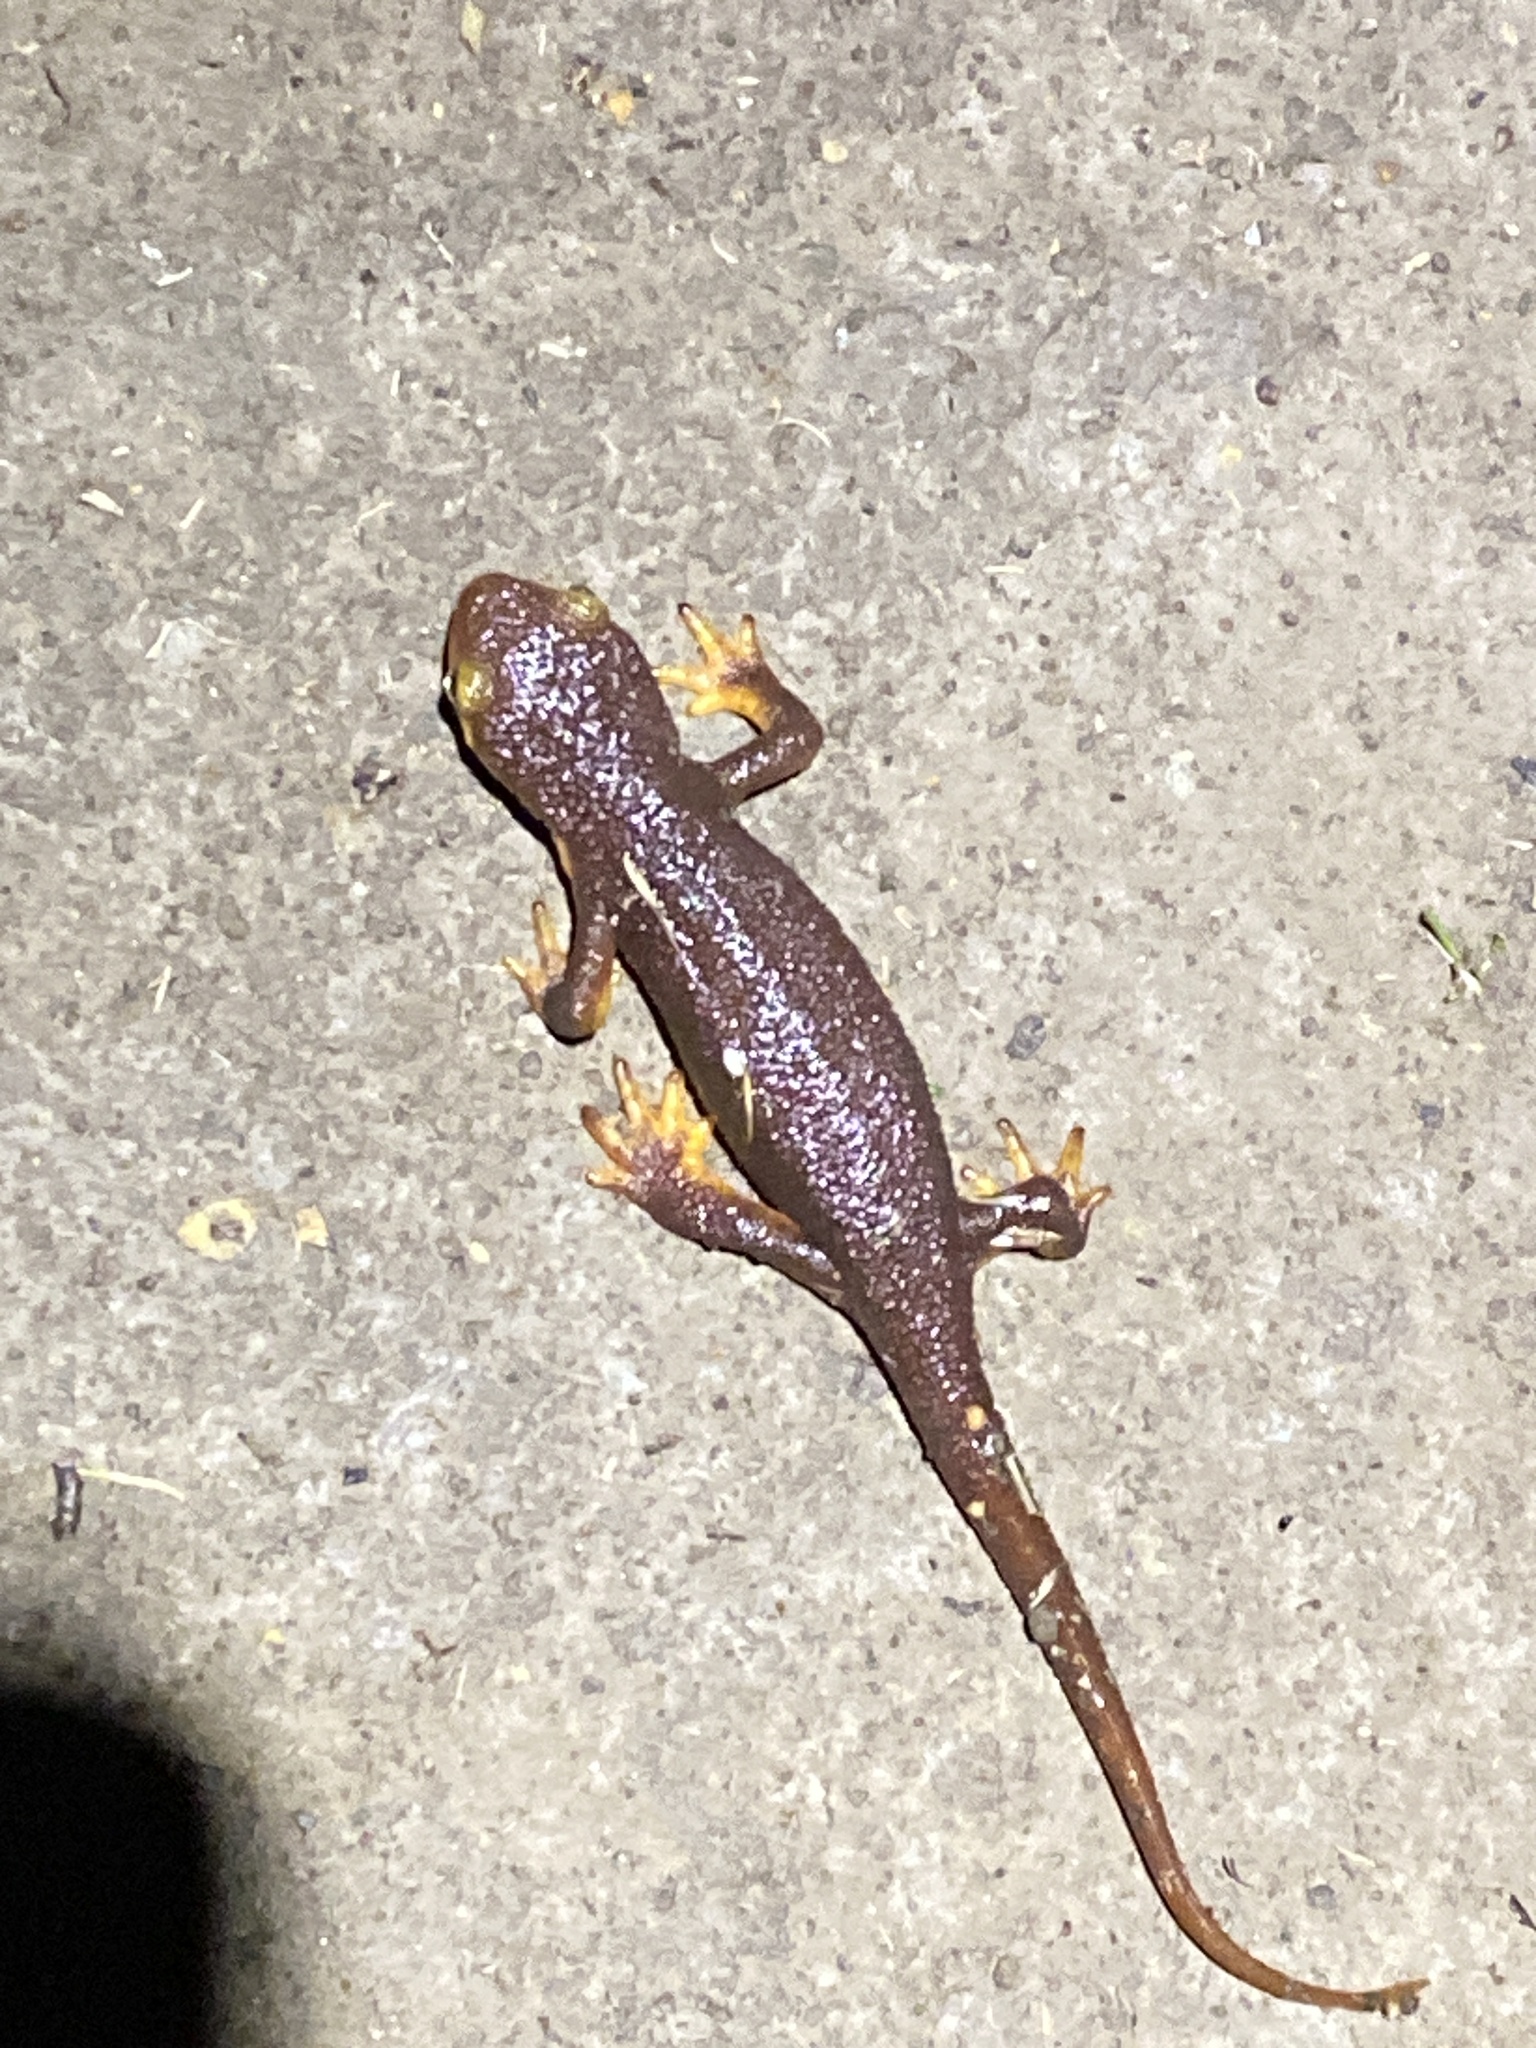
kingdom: Animalia
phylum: Chordata
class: Amphibia
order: Caudata
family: Salamandridae
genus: Taricha
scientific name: Taricha torosa
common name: California newt
